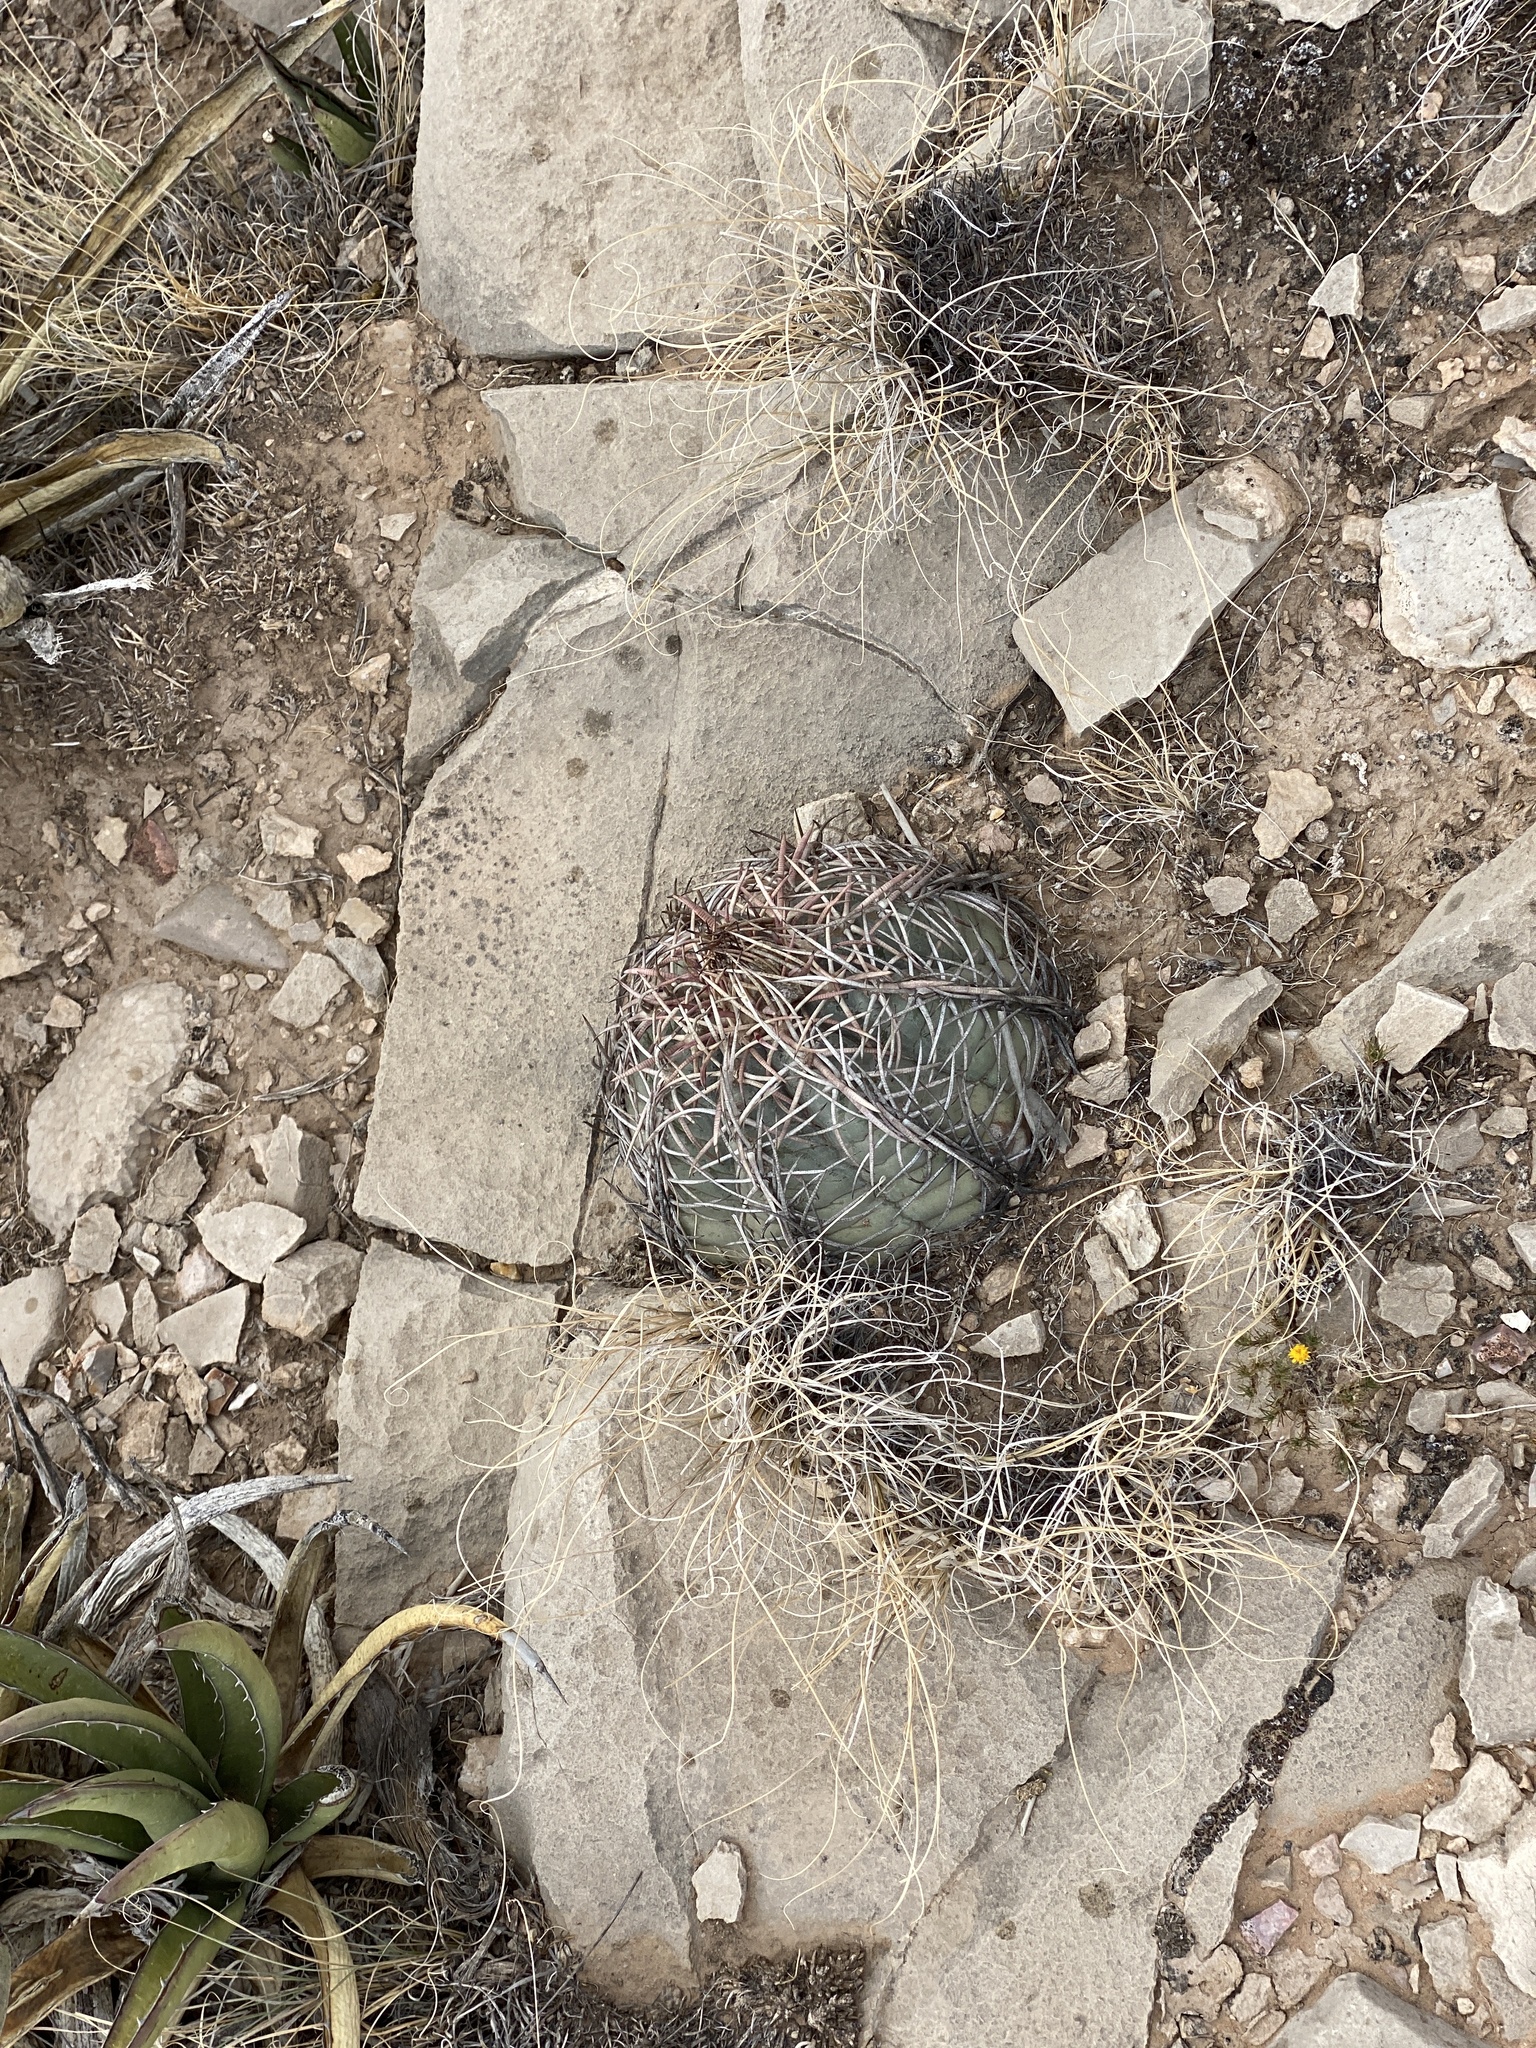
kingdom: Plantae
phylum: Tracheophyta
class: Magnoliopsida
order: Caryophyllales
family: Cactaceae
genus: Echinocactus
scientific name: Echinocactus horizonthalonius
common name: Devilshead
